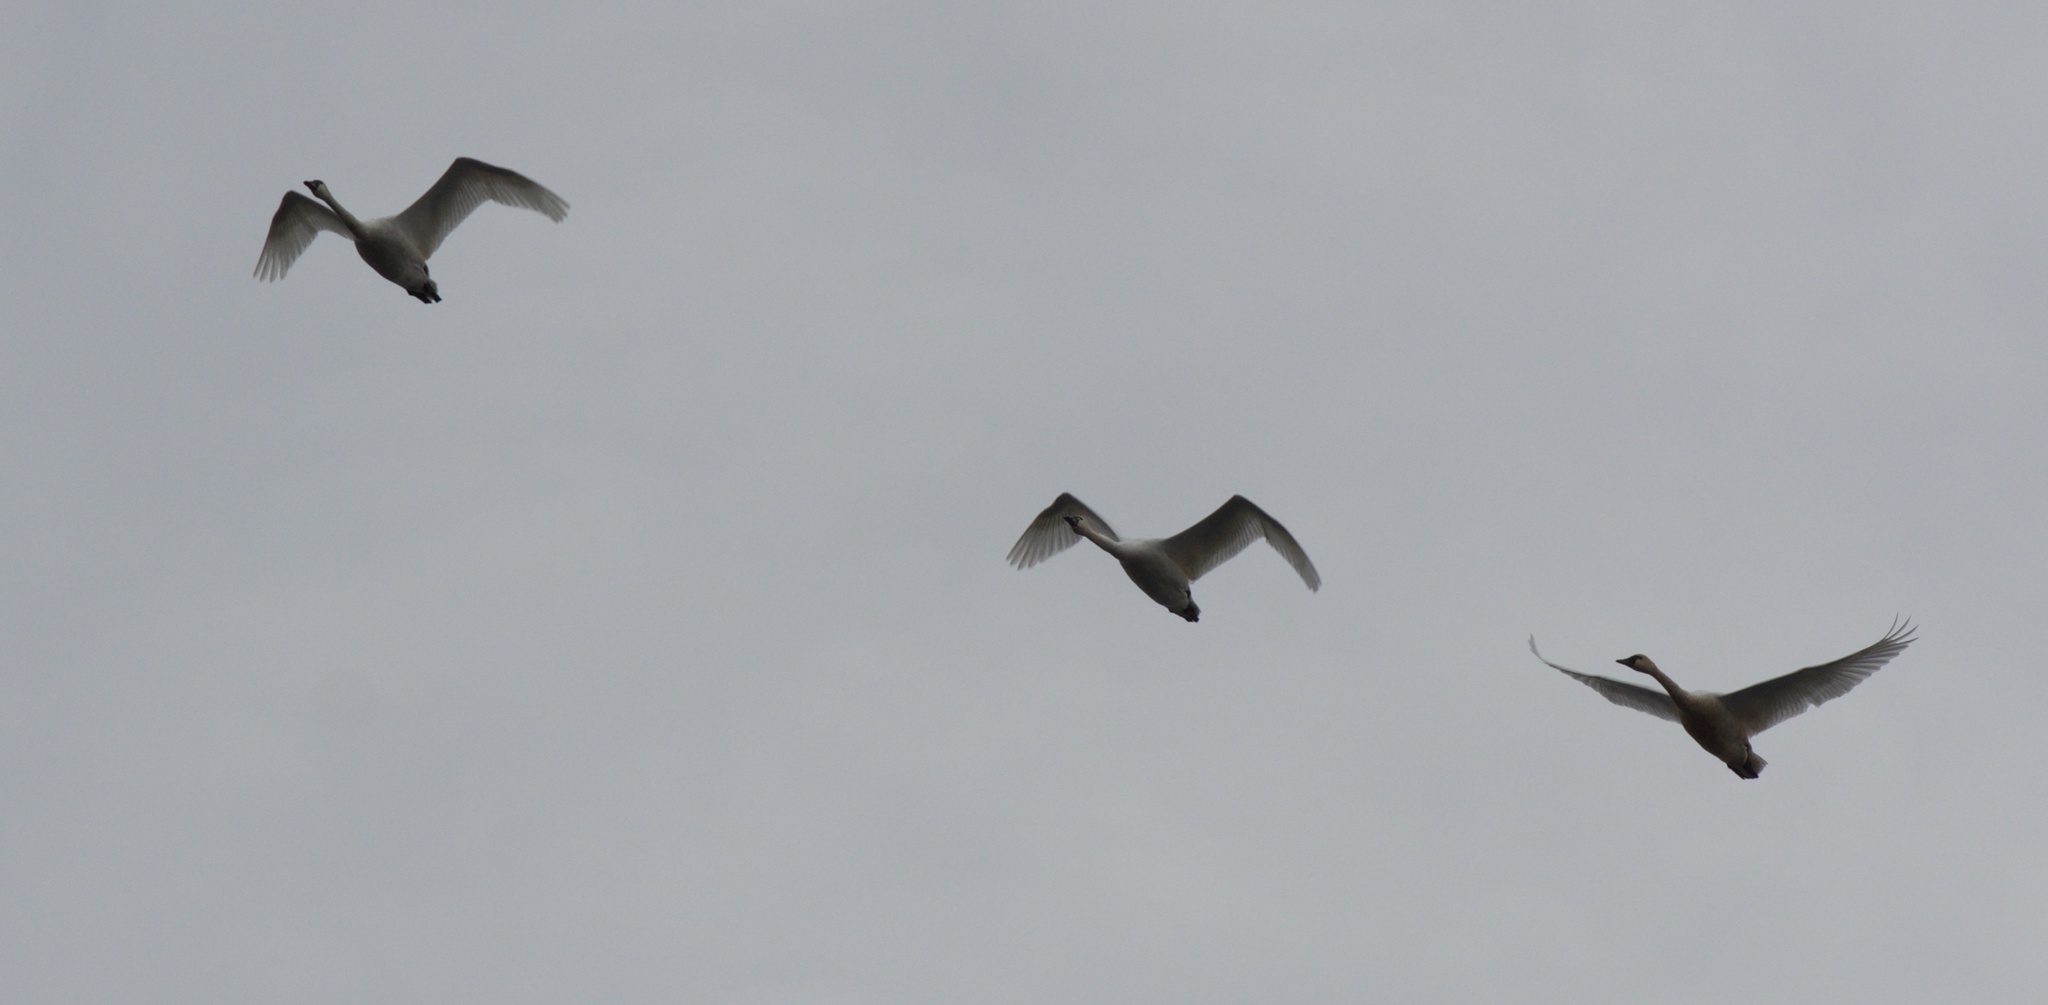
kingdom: Animalia
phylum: Chordata
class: Aves
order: Anseriformes
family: Anatidae
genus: Cygnus
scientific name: Cygnus columbianus
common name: Tundra swan
